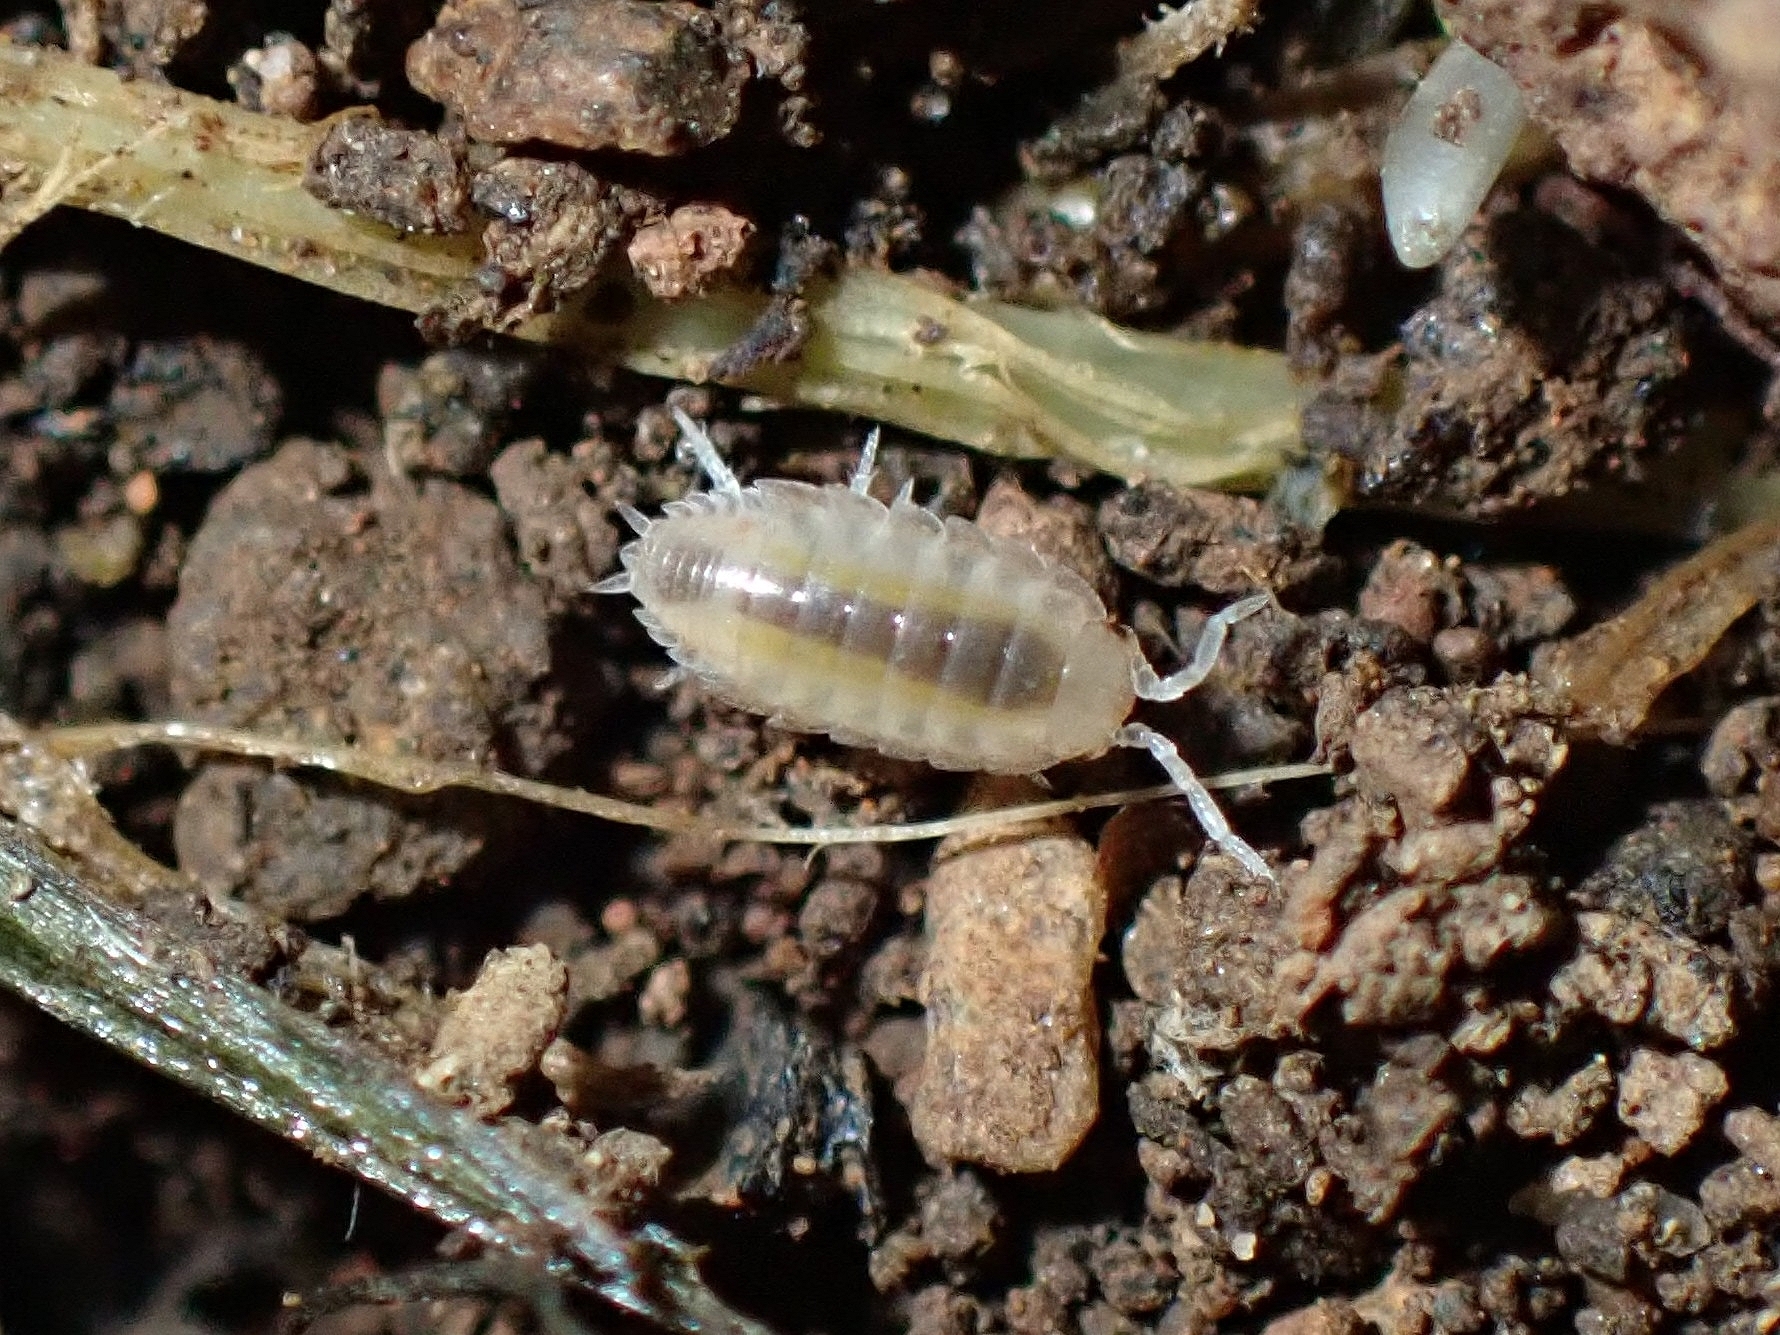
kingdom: Animalia
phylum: Arthropoda
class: Malacostraca
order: Isopoda
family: Porcellionidae
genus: Porcellio
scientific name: Porcellio laevis
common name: Swift woodlouse
